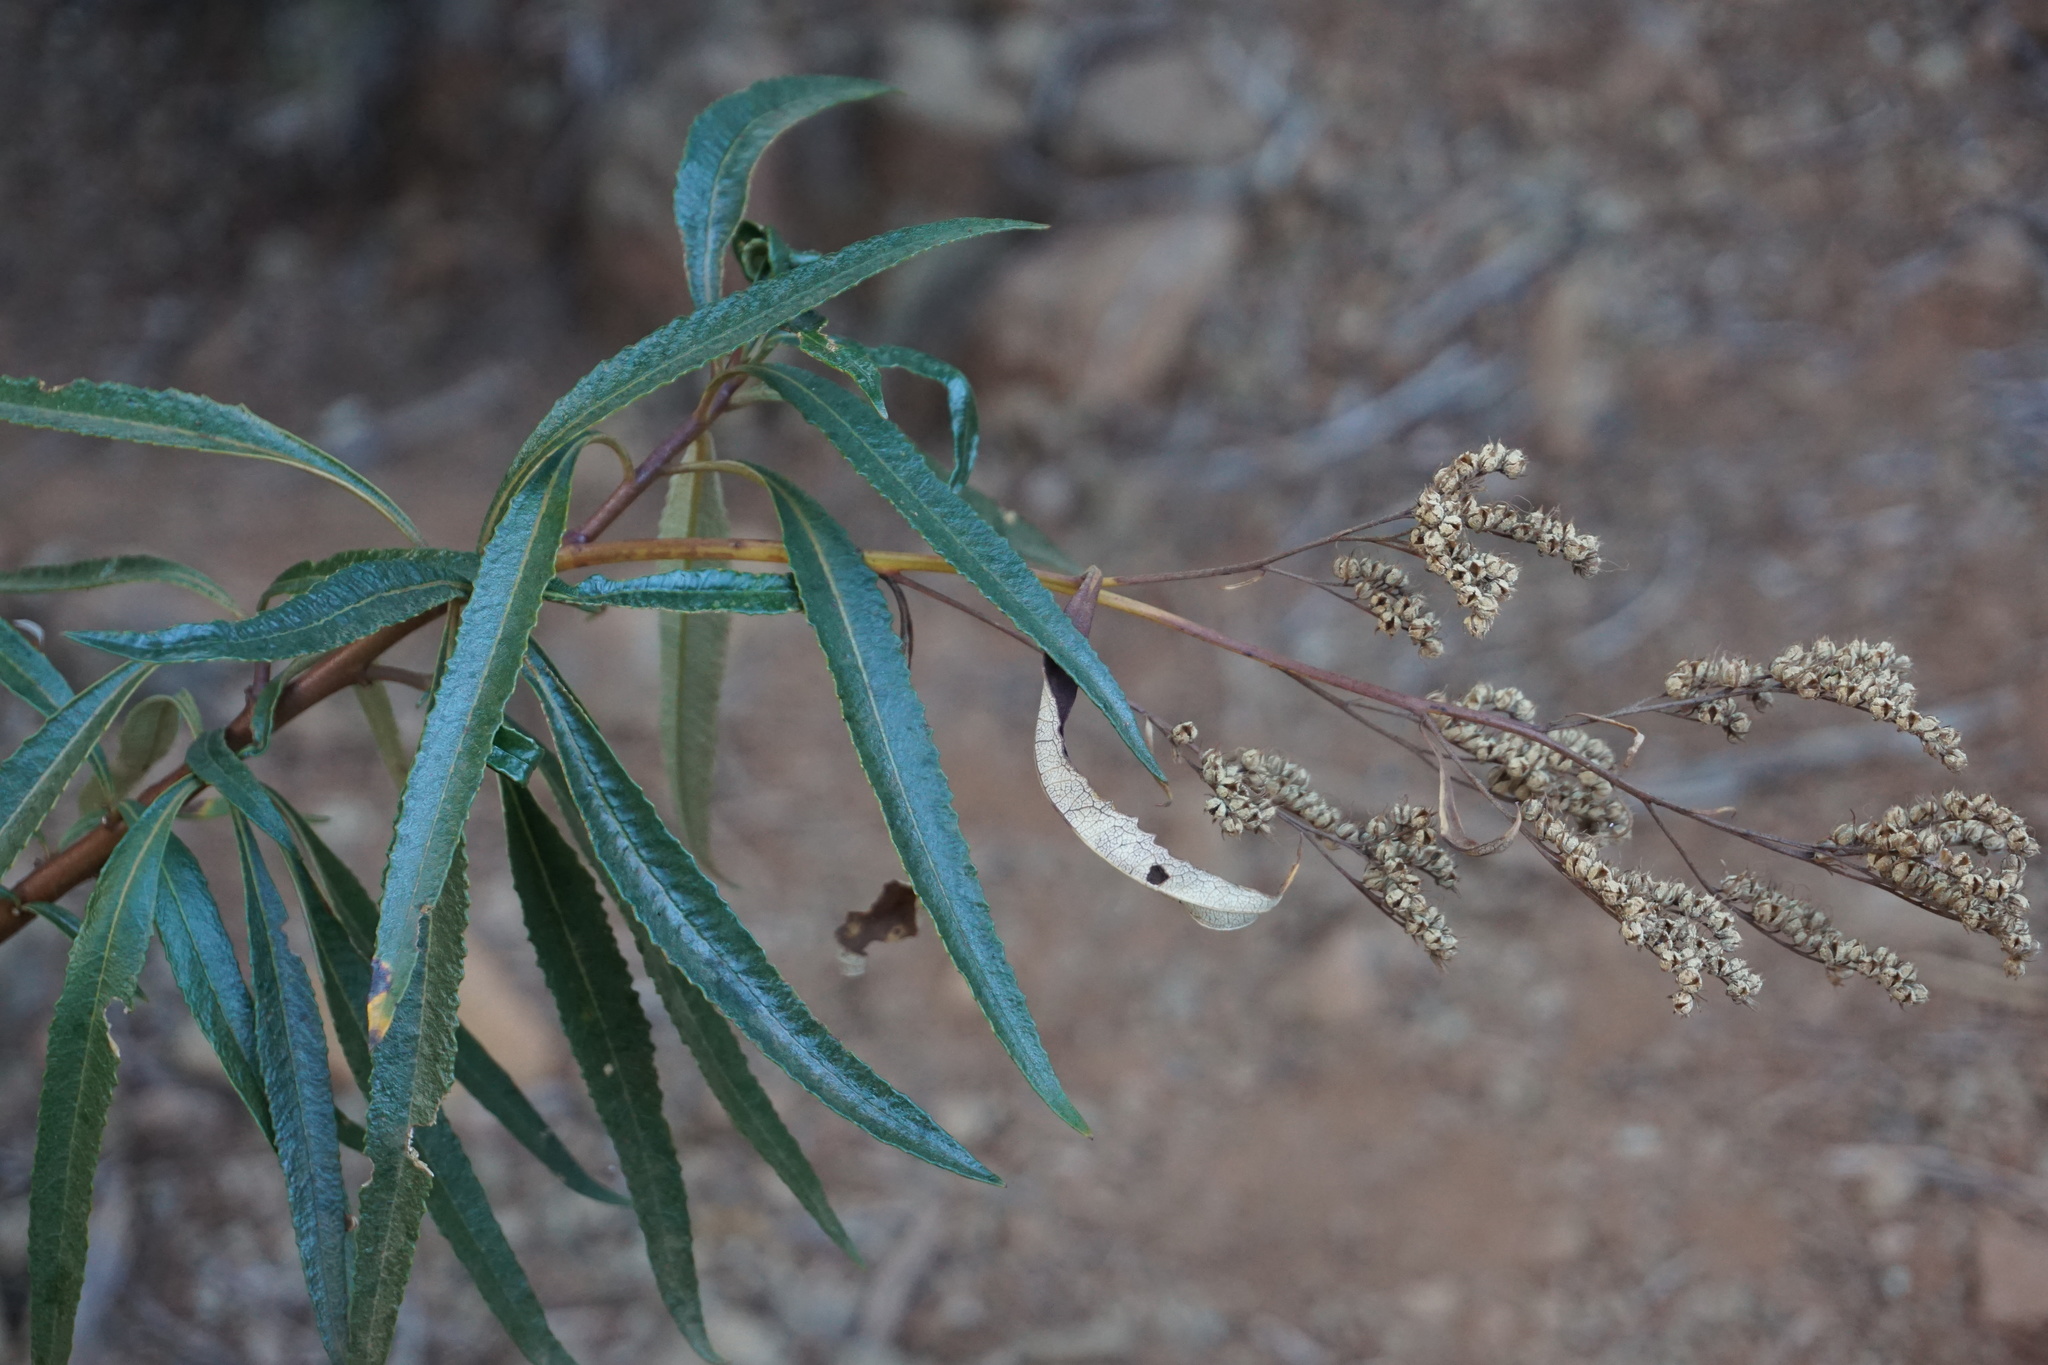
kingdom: Plantae
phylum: Tracheophyta
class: Magnoliopsida
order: Boraginales
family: Namaceae
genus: Eriodictyon
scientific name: Eriodictyon californicum
